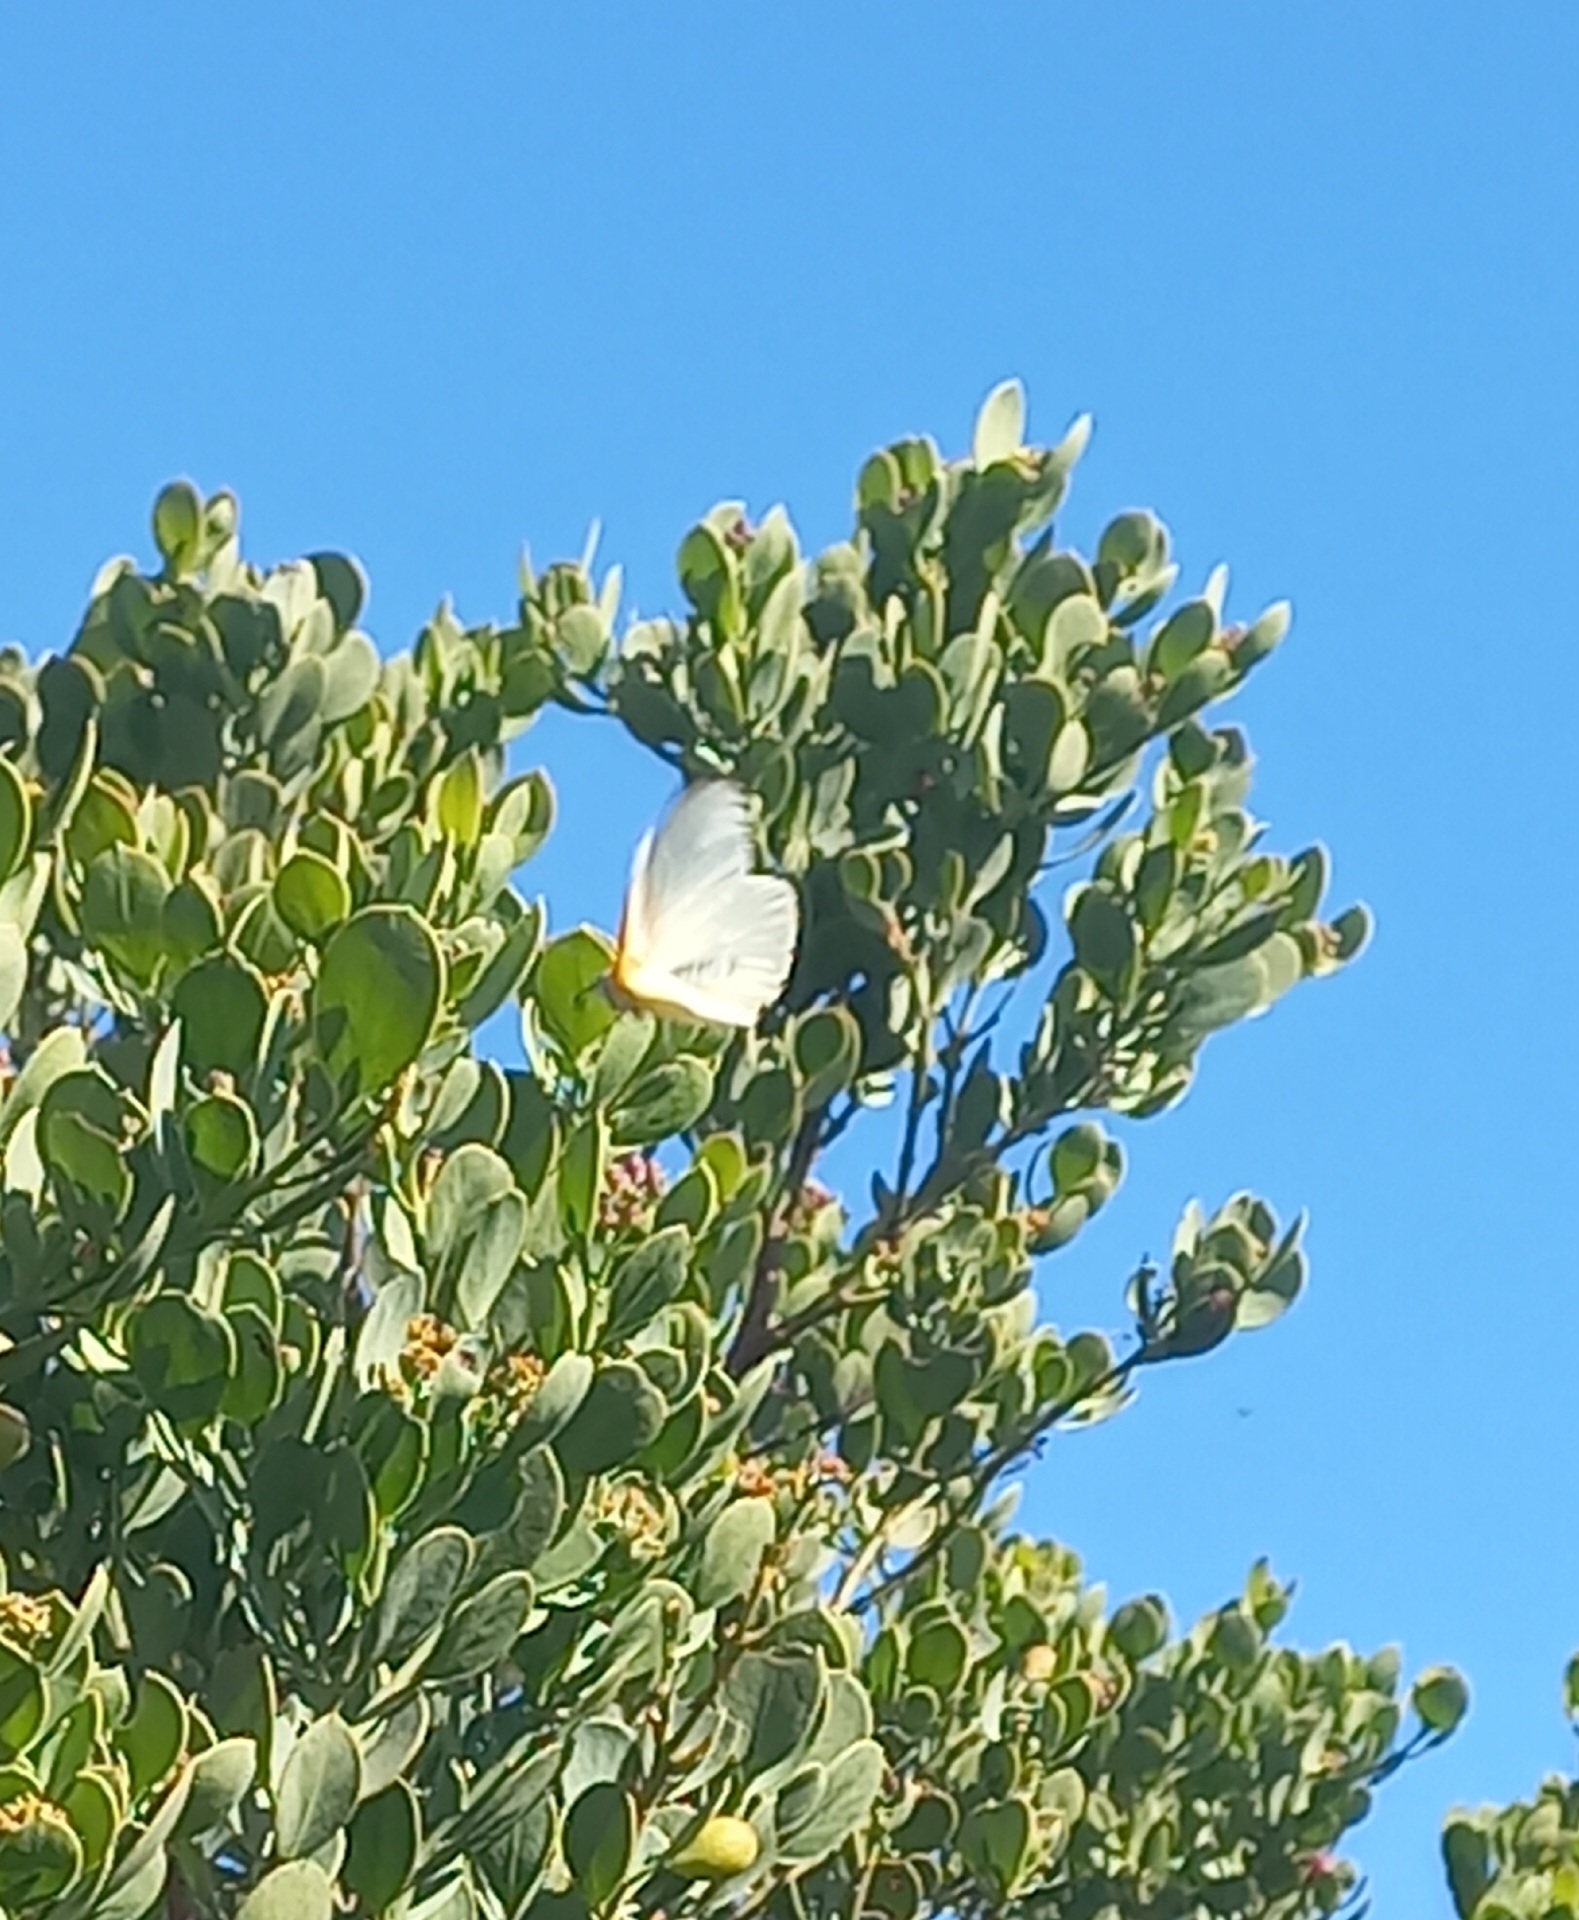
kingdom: Animalia
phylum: Arthropoda
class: Insecta
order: Lepidoptera
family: Pieridae
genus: Mylothris
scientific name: Mylothris agathina
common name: Eastern dotted border
